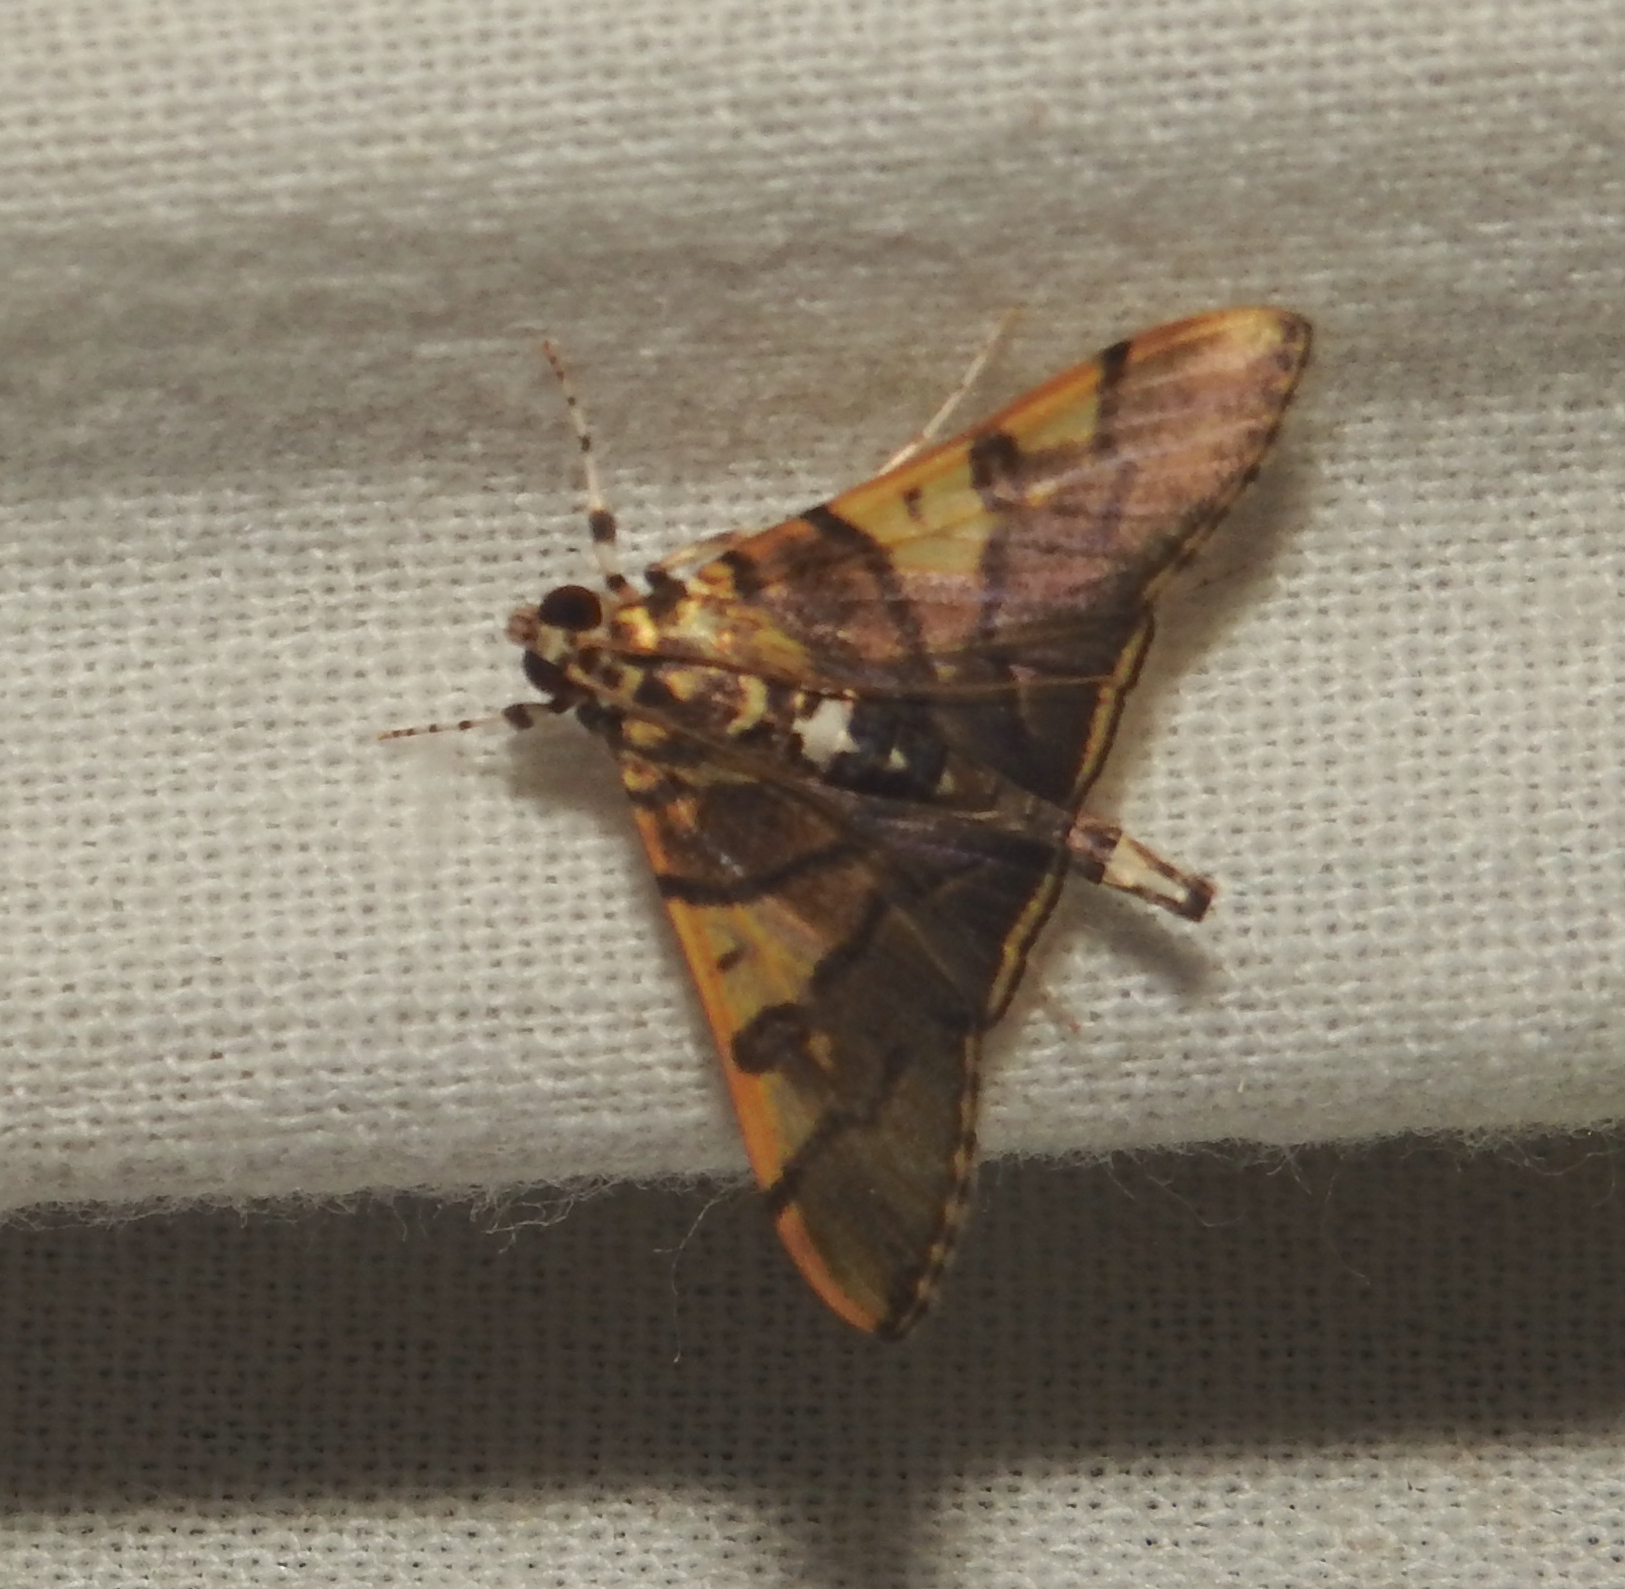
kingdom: Animalia
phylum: Arthropoda
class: Insecta
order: Lepidoptera
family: Crambidae
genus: Nothomastix
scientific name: Nothomastix pronaxalis
